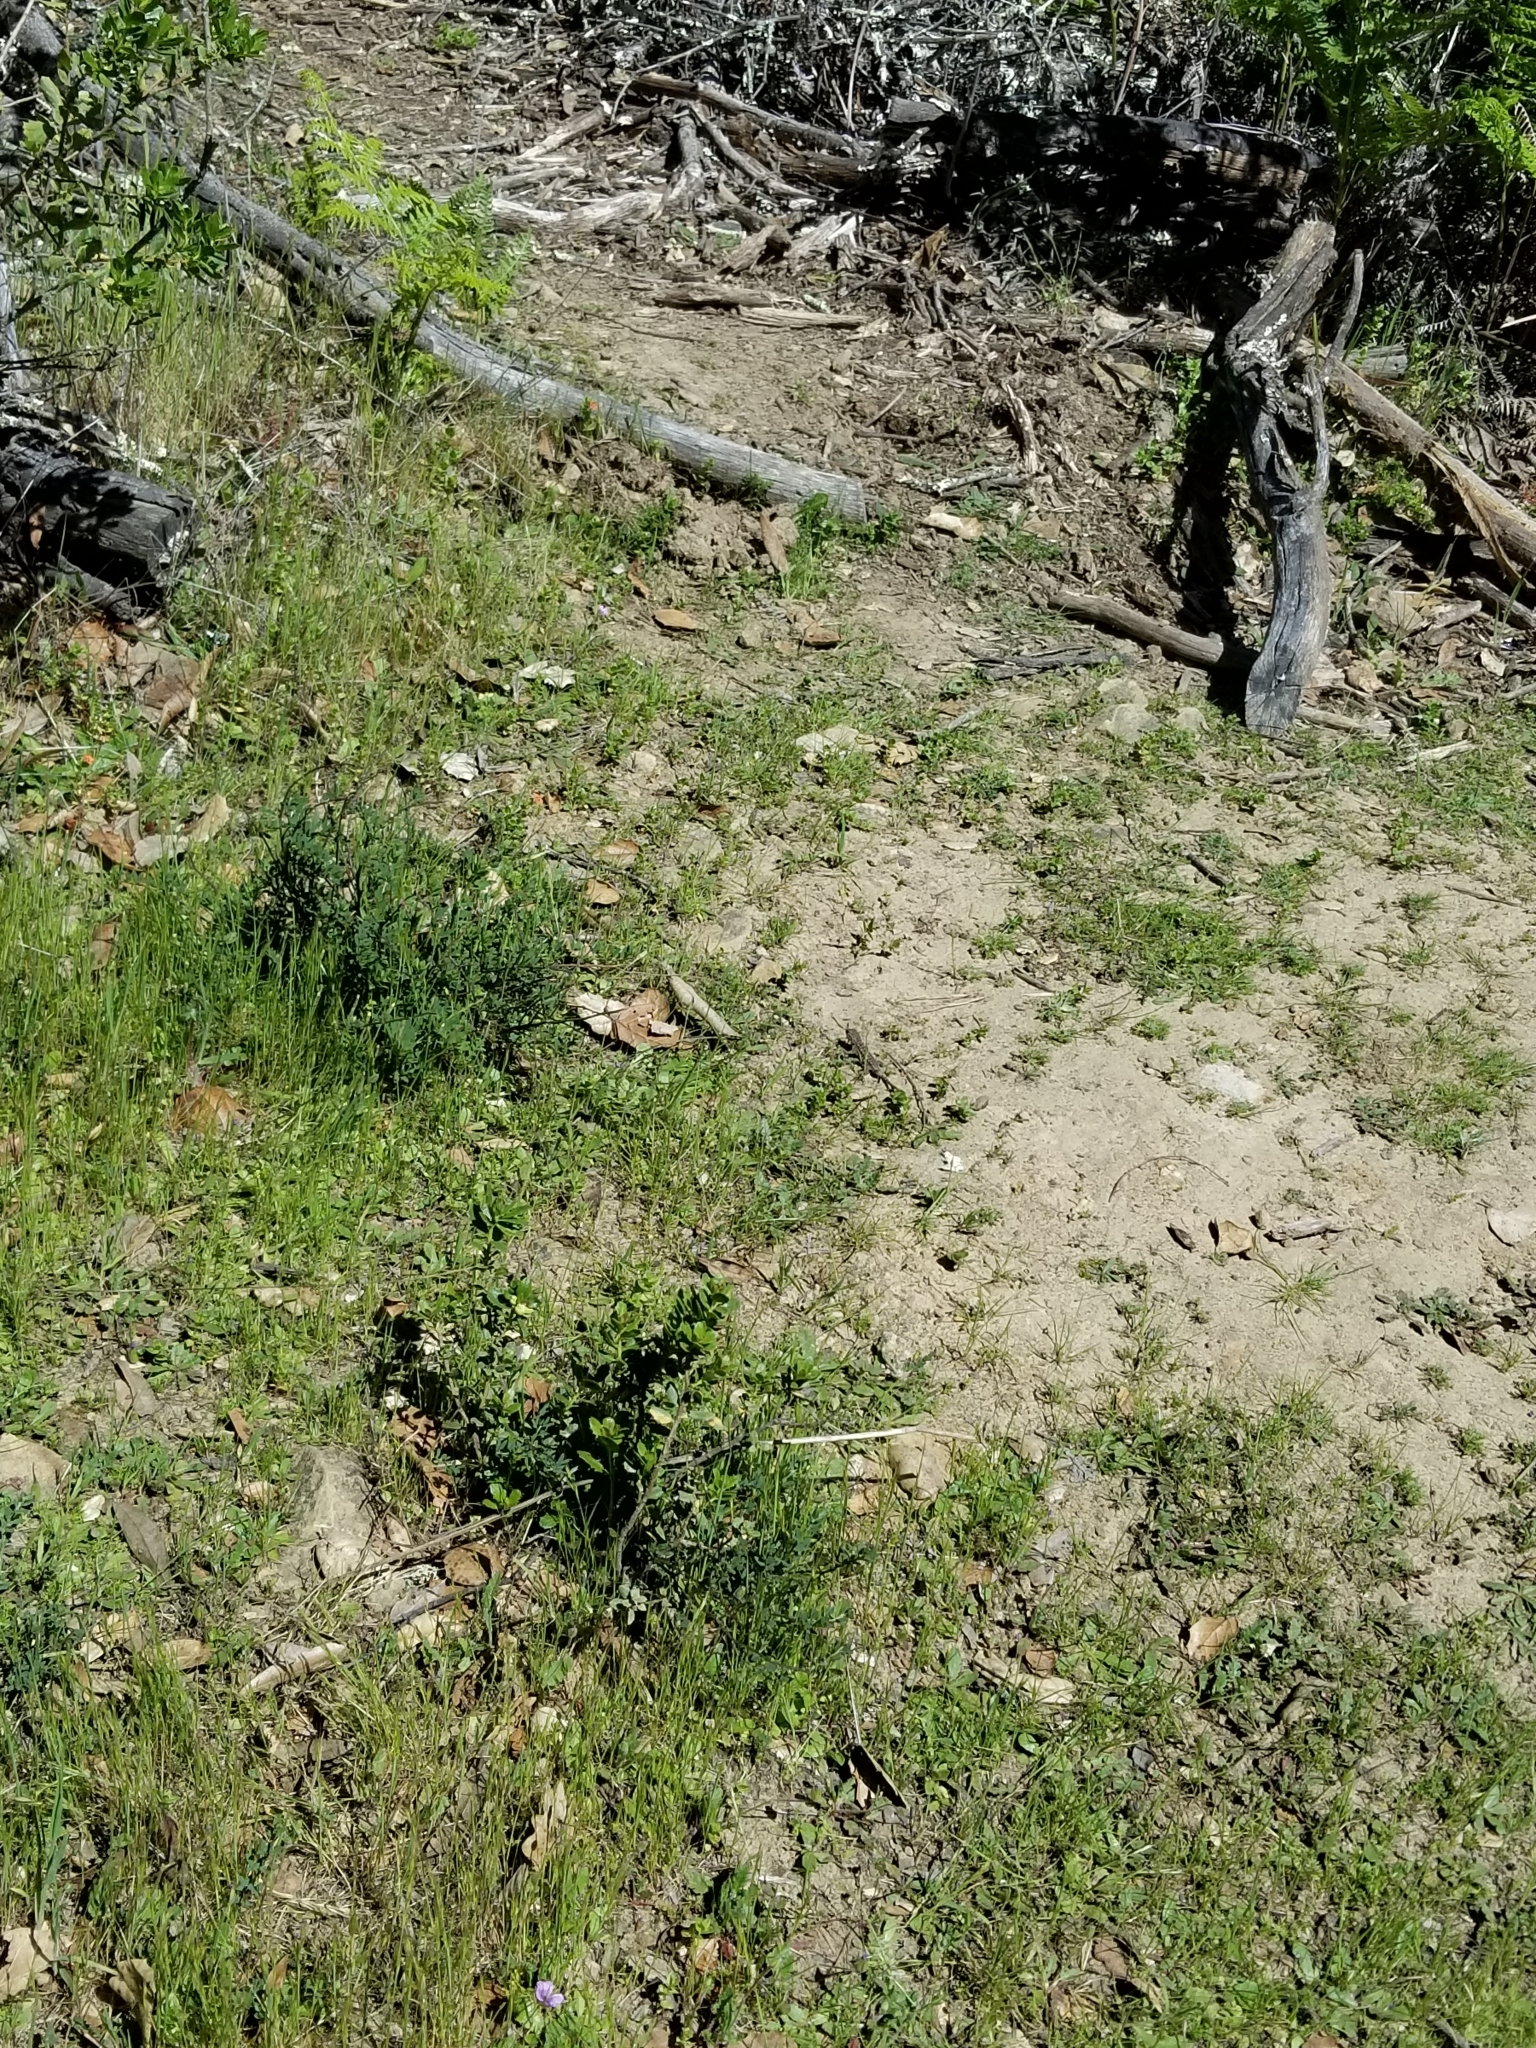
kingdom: Animalia
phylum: Chordata
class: Squamata
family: Phrynosomatidae
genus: Sceloporus
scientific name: Sceloporus occidentalis
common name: Western fence lizard
